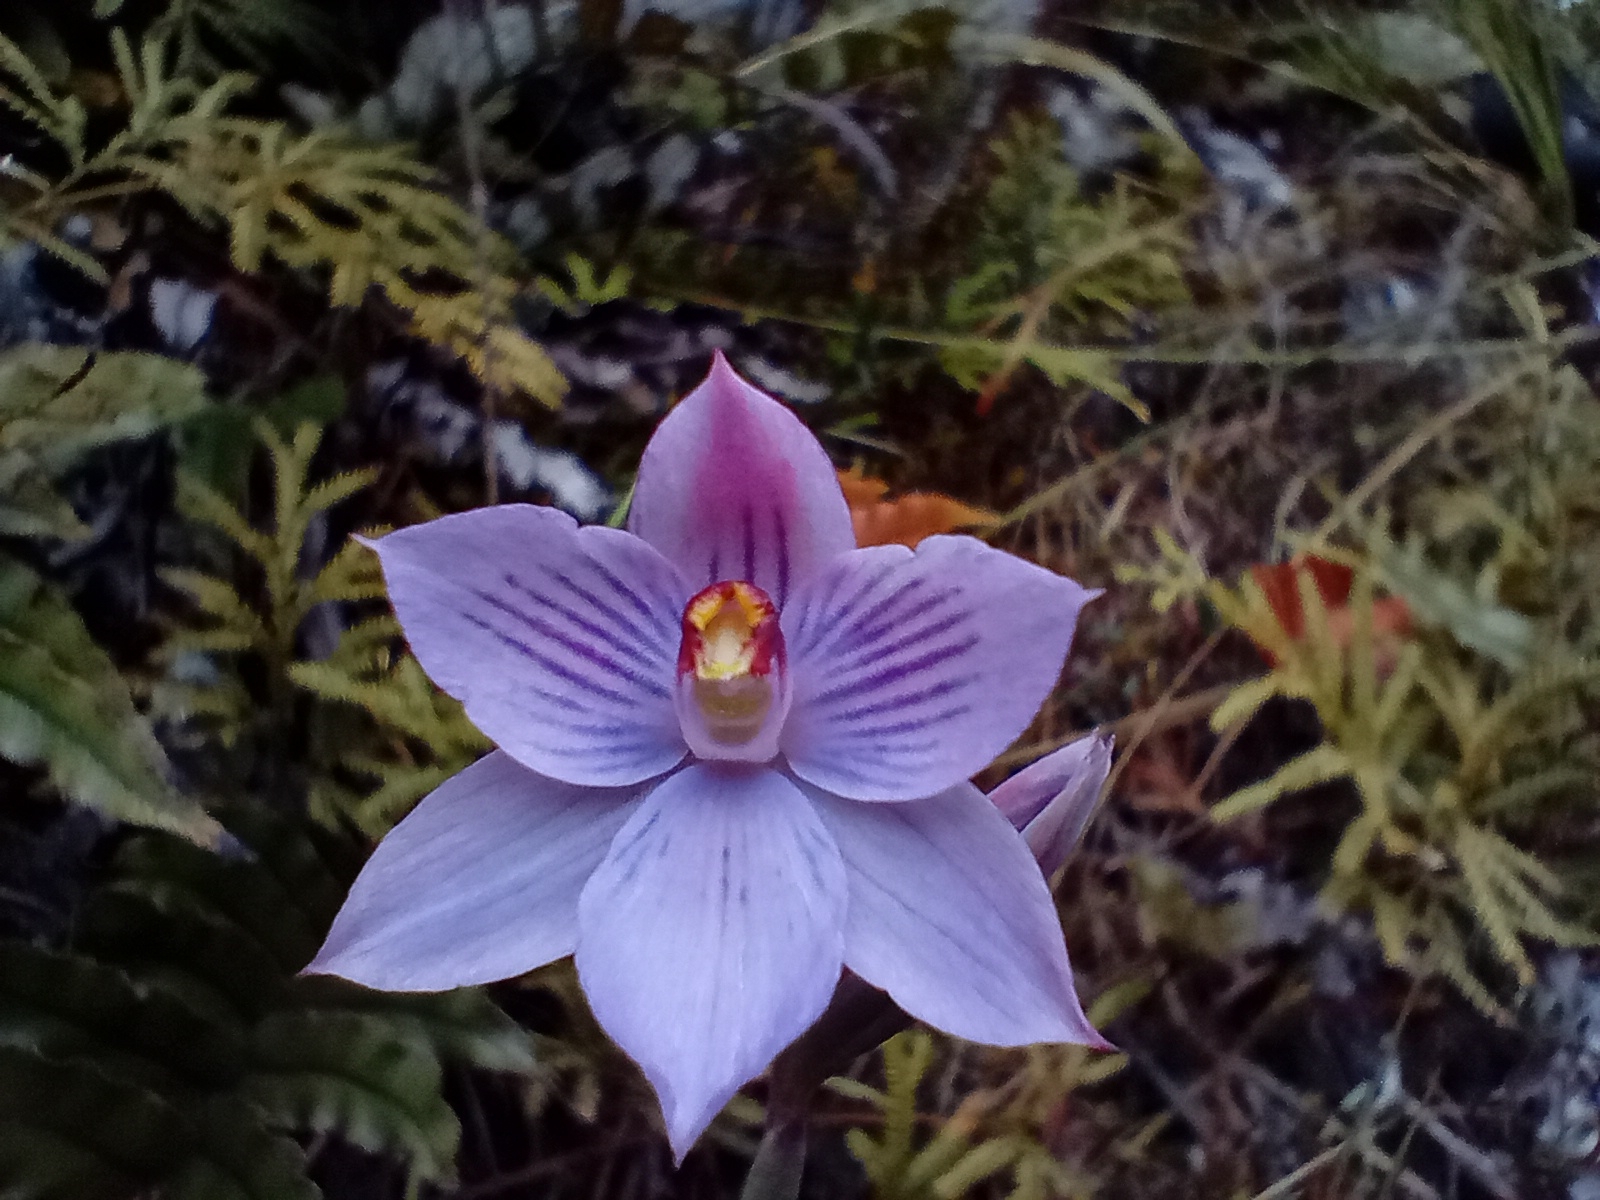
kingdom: Plantae
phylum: Tracheophyta
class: Liliopsida
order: Asparagales
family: Orchidaceae
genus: Thelymitra
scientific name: Thelymitra pulchella
